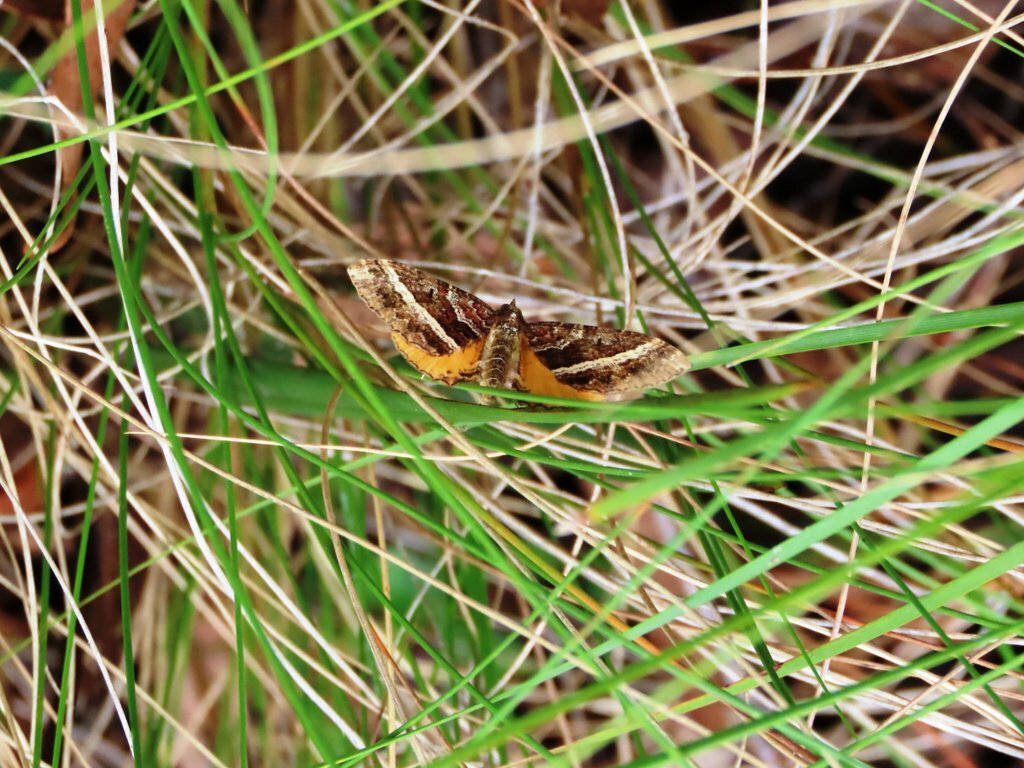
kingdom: Animalia
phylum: Arthropoda
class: Insecta
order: Lepidoptera
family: Geometridae
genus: Chrysolarentia
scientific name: Chrysolarentia vicissata
